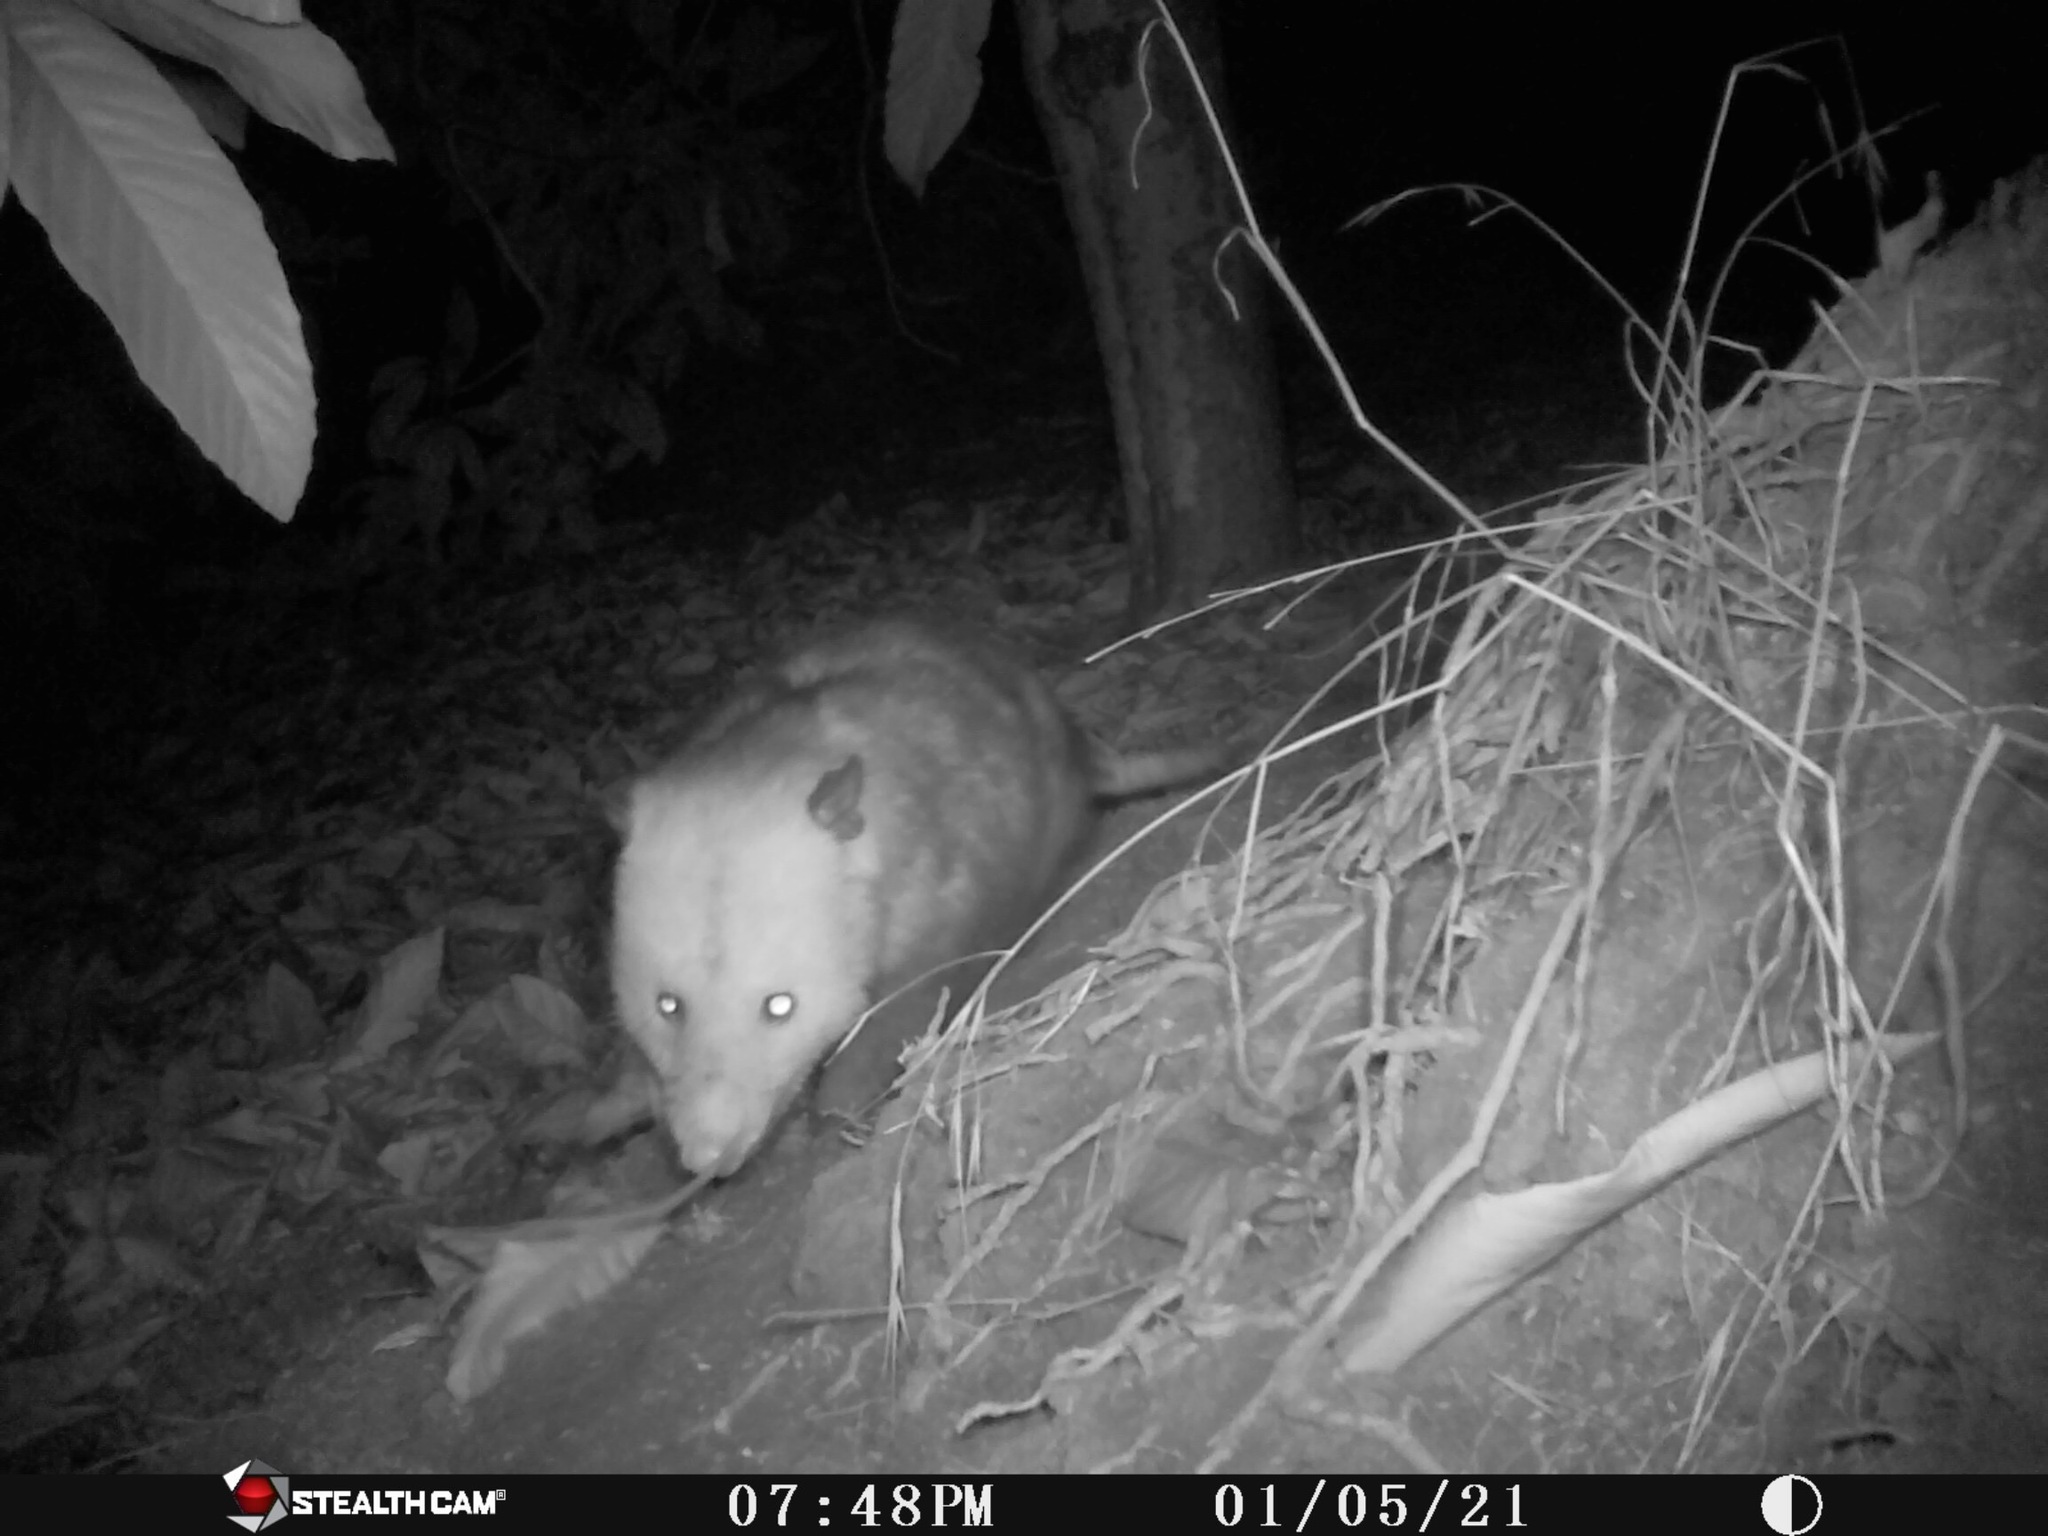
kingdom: Animalia
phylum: Chordata
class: Mammalia
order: Didelphimorphia
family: Didelphidae
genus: Didelphis
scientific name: Didelphis virginiana
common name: Virginia opossum
